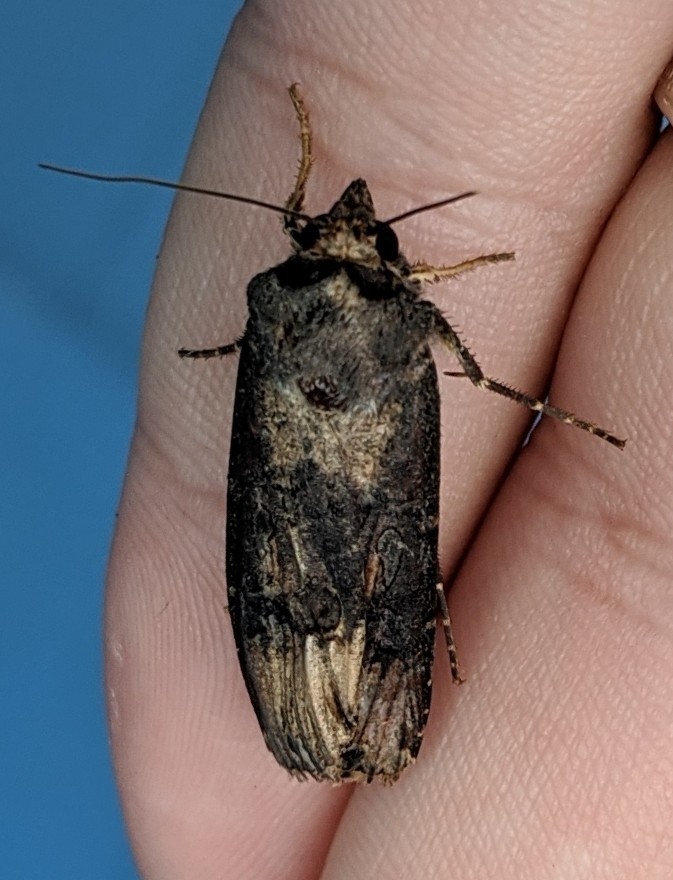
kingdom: Animalia
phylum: Arthropoda
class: Insecta
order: Lepidoptera
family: Noctuidae
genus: Agrotis
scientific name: Agrotis ipsilon
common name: Dark sword-grass
